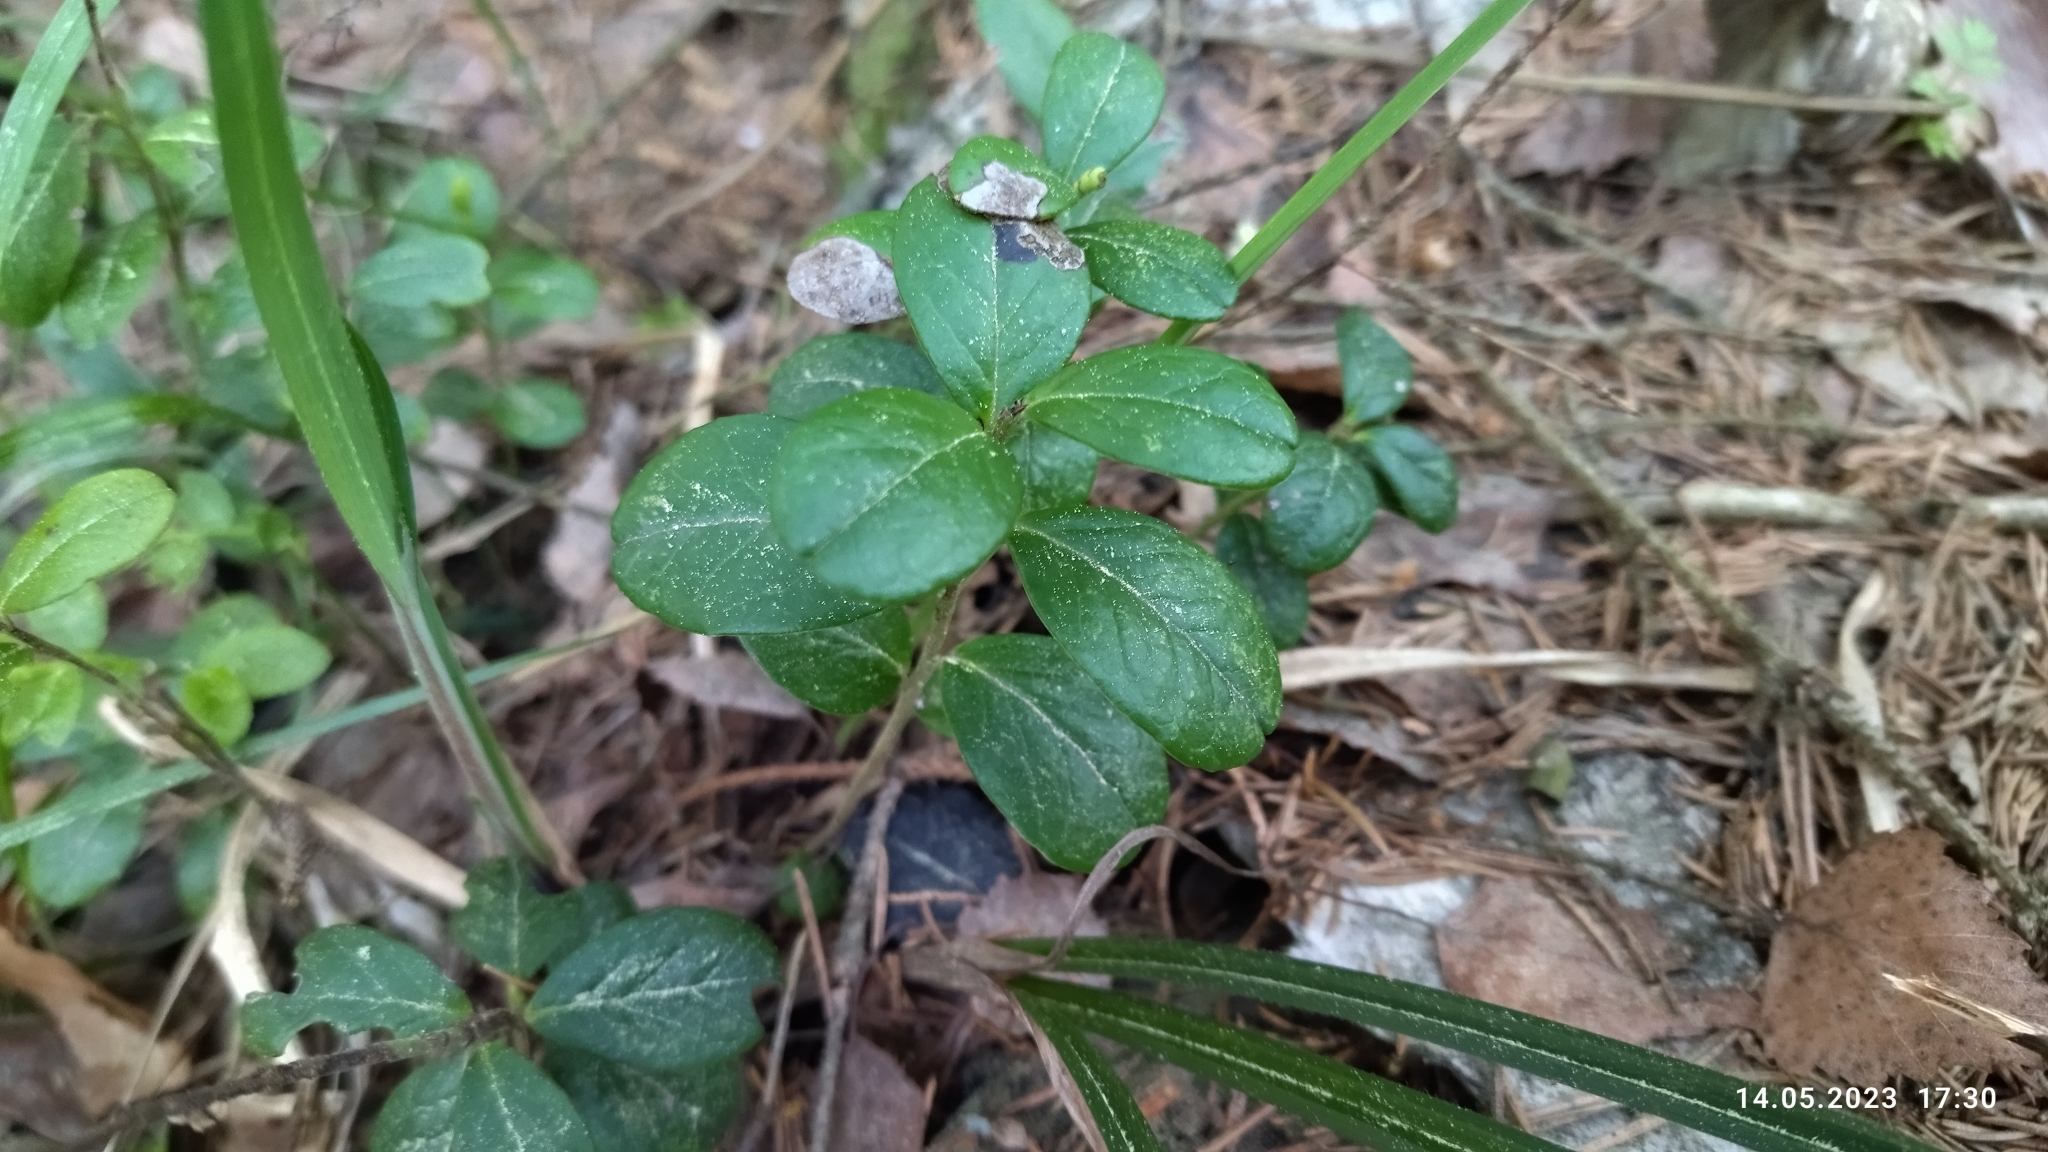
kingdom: Plantae
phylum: Tracheophyta
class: Magnoliopsida
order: Ericales
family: Ericaceae
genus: Vaccinium
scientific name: Vaccinium vitis-idaea
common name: Cowberry
